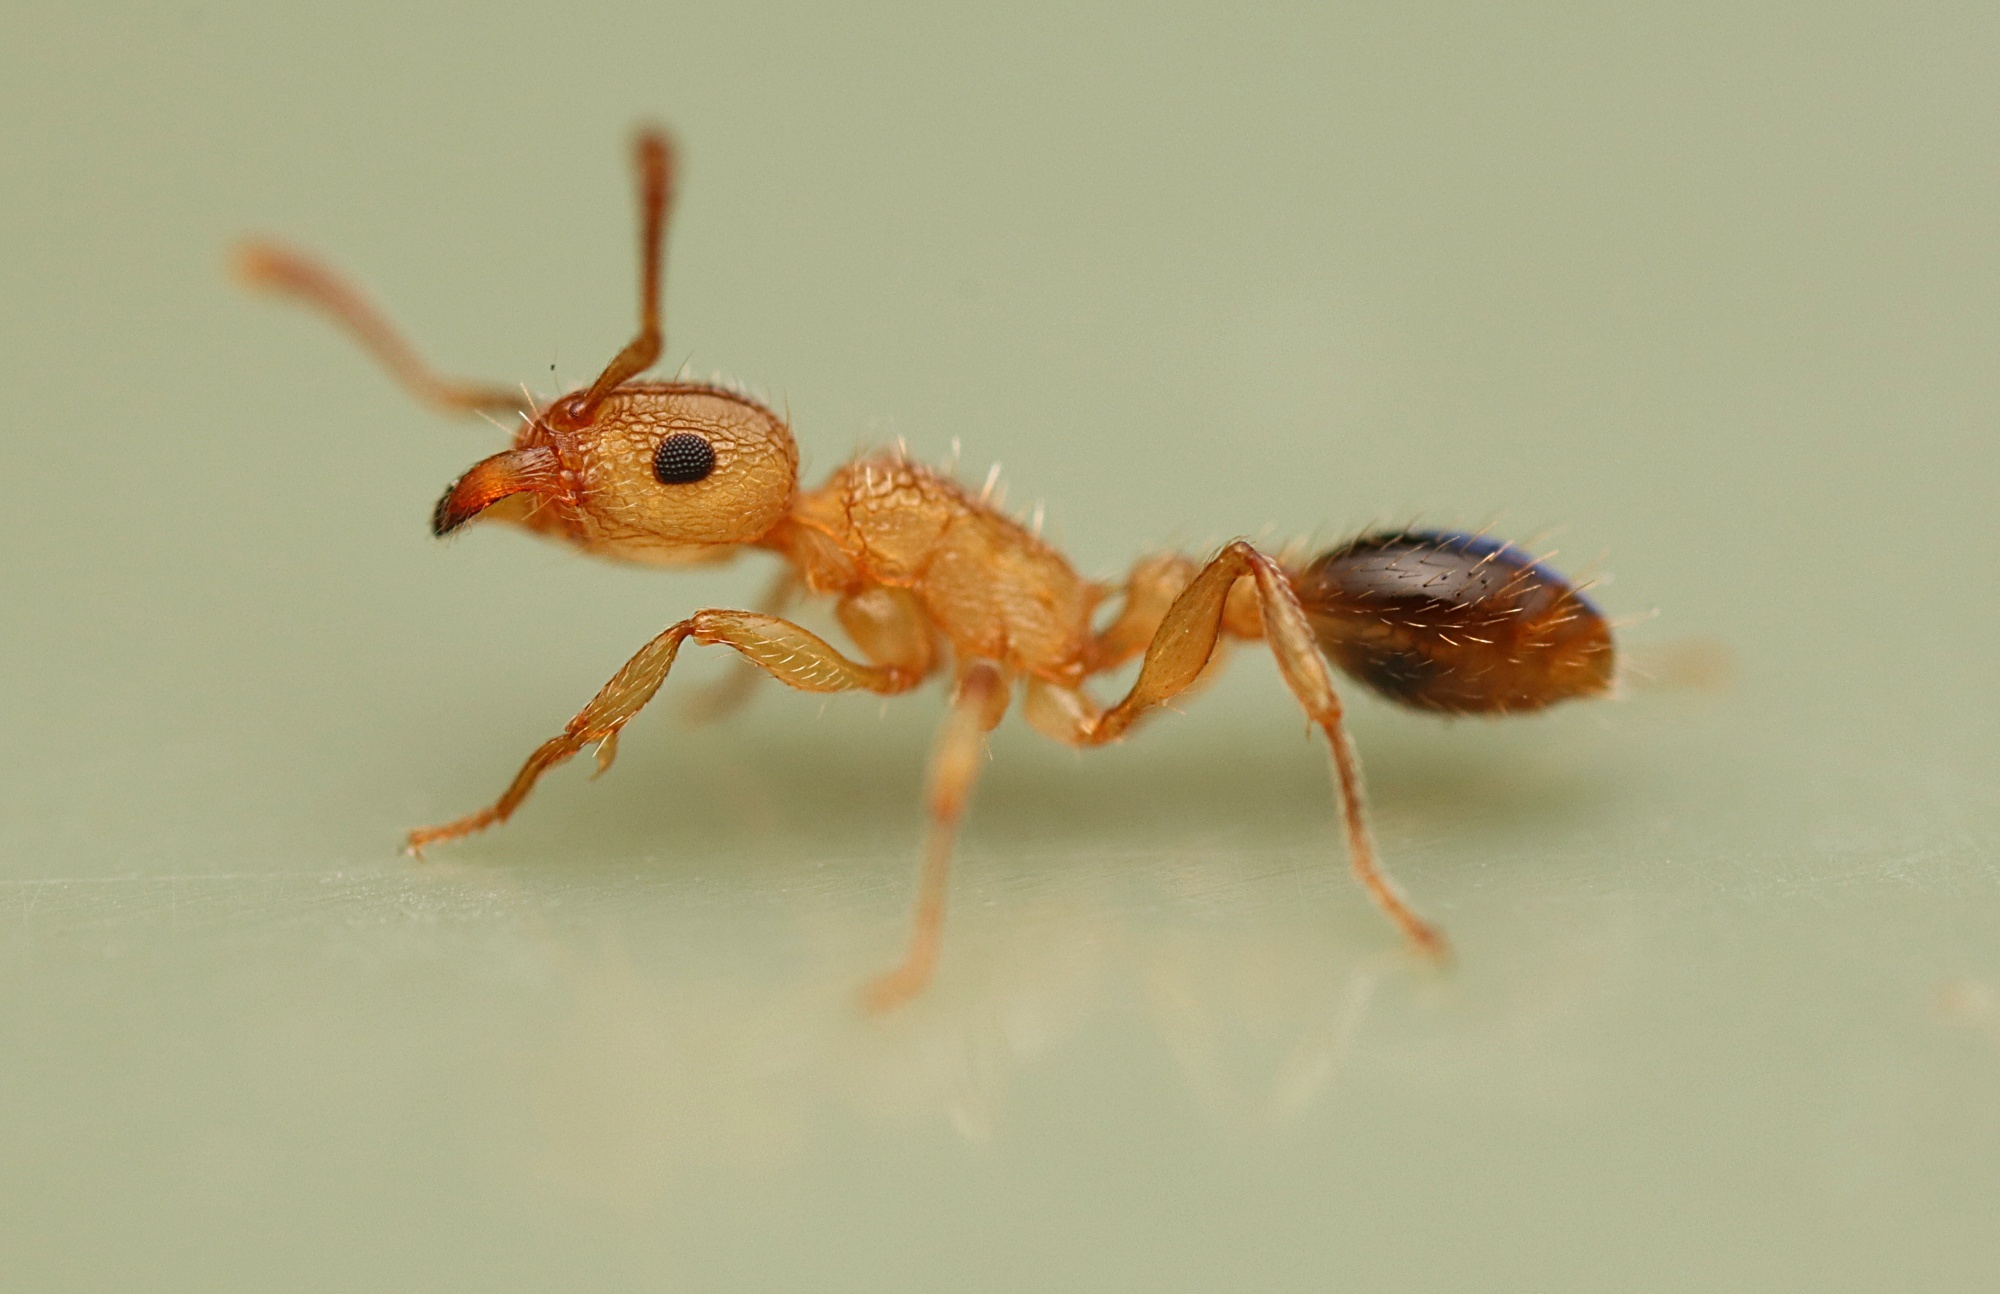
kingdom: Animalia
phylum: Arthropoda
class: Insecta
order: Hymenoptera
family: Formicidae
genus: Tetramorium
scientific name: Tetramorium bicarinatum
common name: Guinea ant
